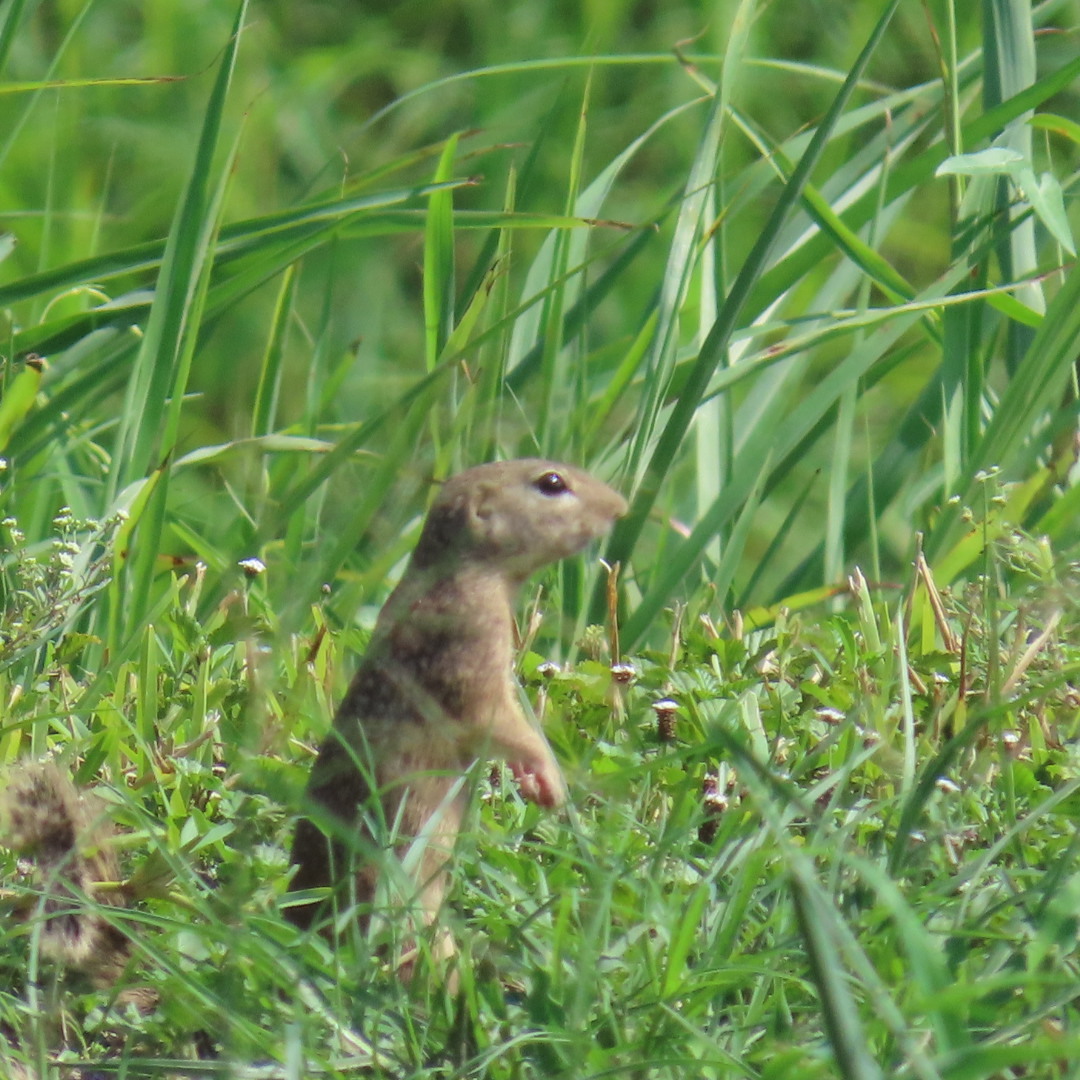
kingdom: Animalia
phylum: Chordata
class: Mammalia
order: Rodentia
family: Sciuridae
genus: Ictidomys
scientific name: Ictidomys parvidens
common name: Rio grande ground squirrel
